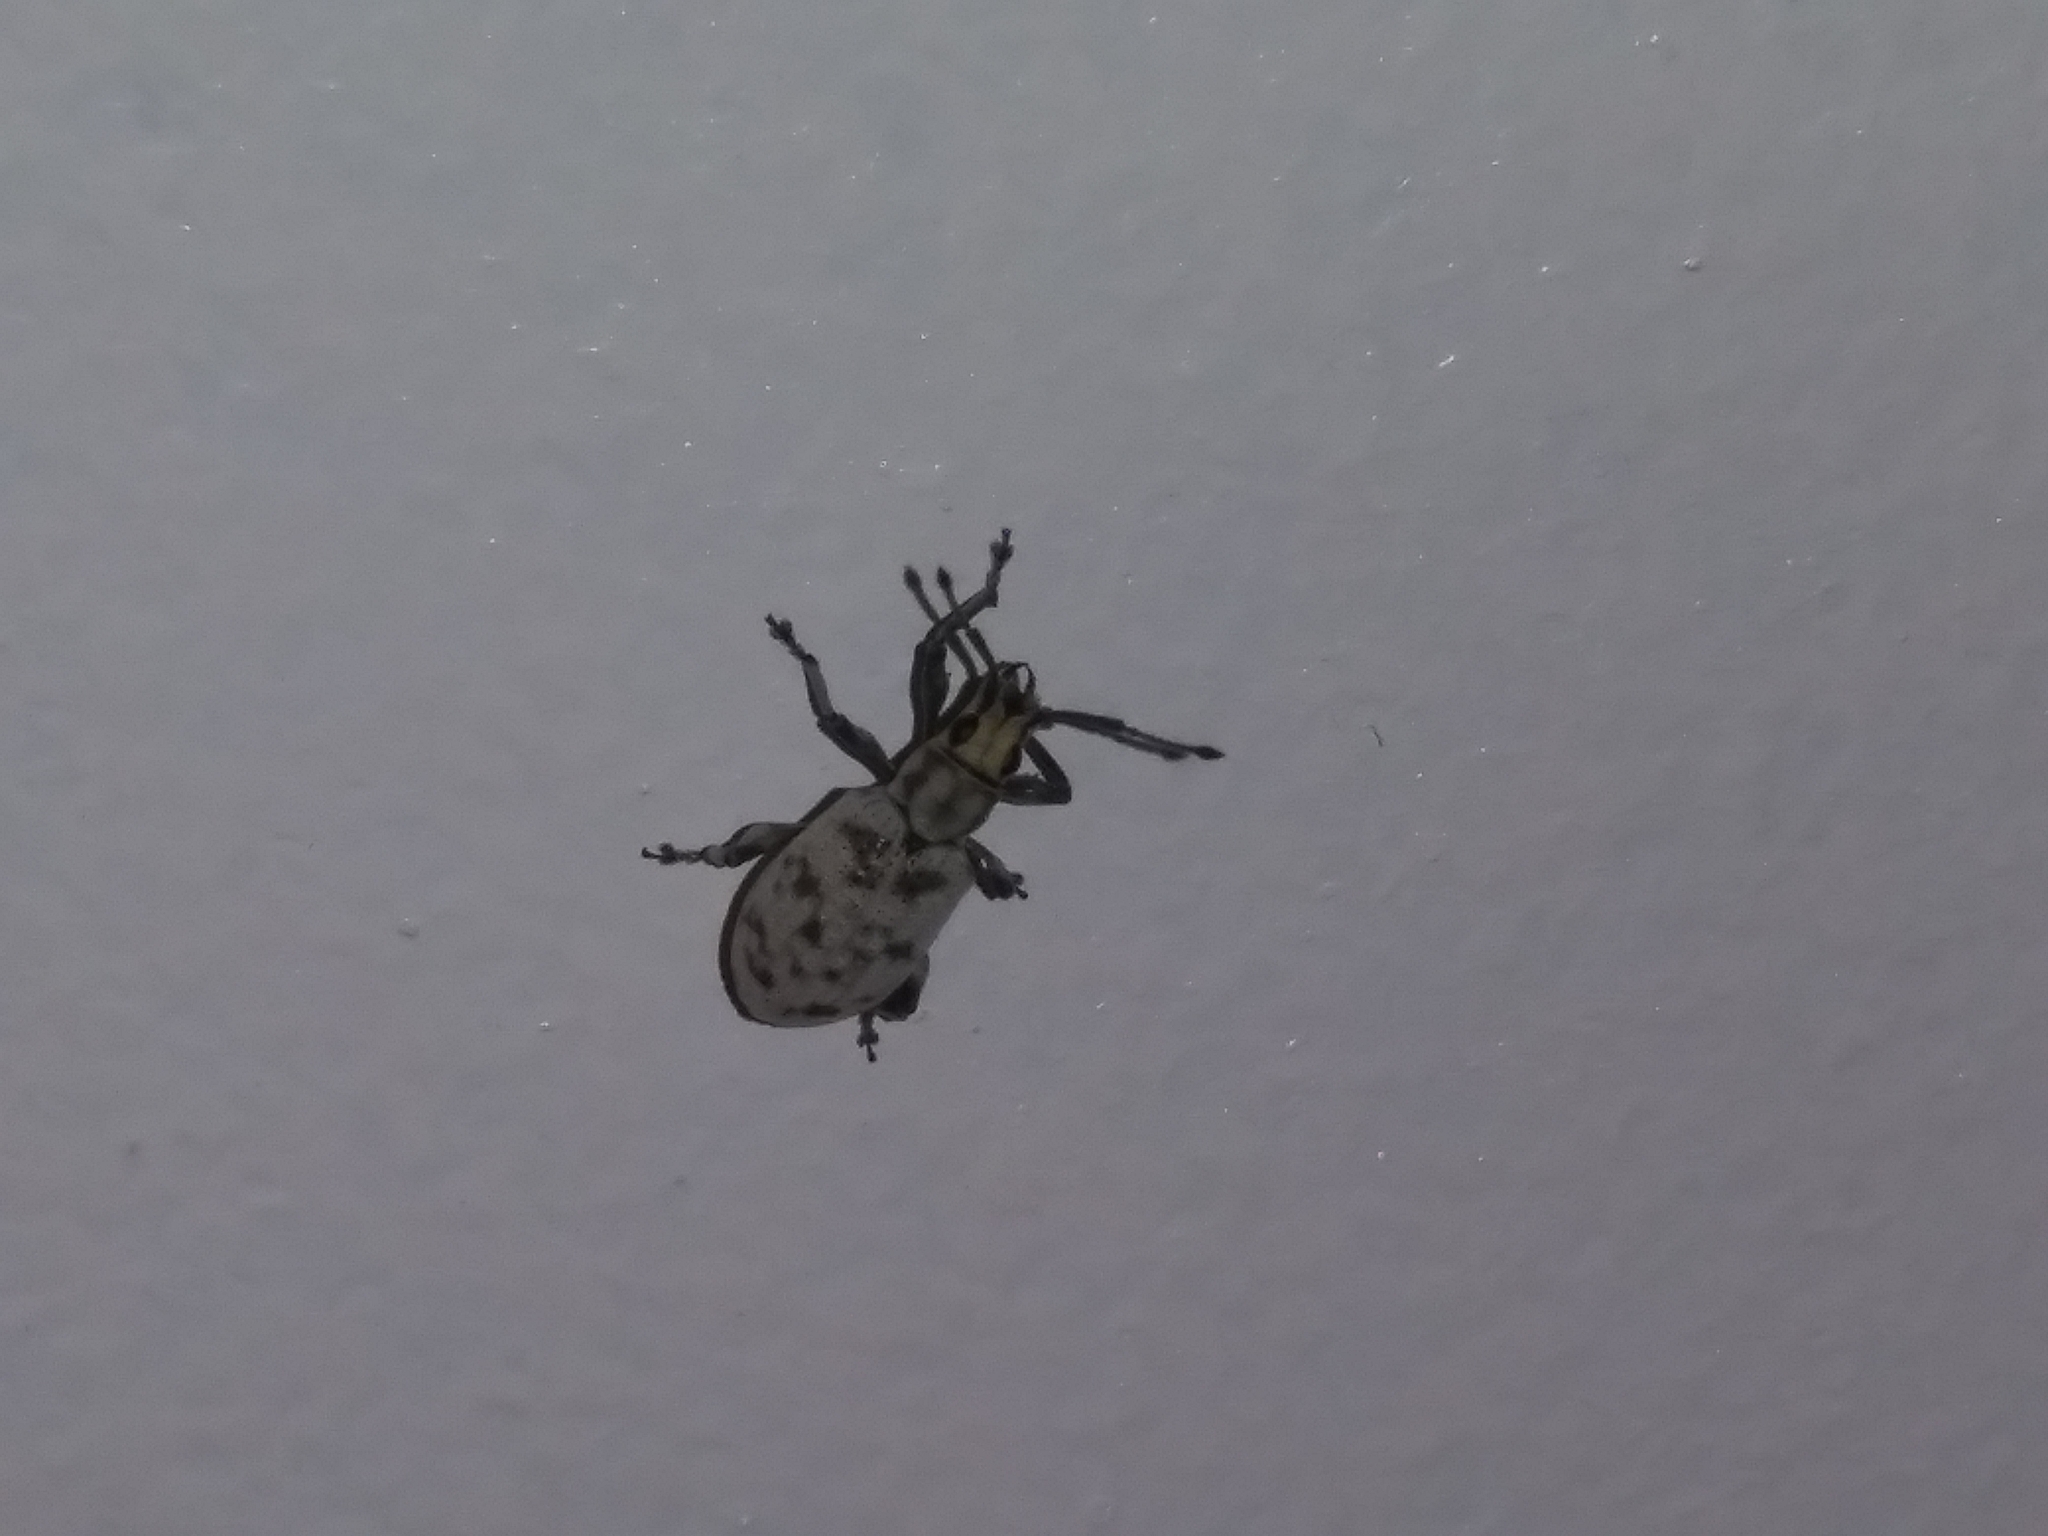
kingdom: Animalia
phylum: Arthropoda
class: Insecta
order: Coleoptera
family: Curculionidae
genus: Myllocerus
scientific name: Myllocerus undecimpustulatus
